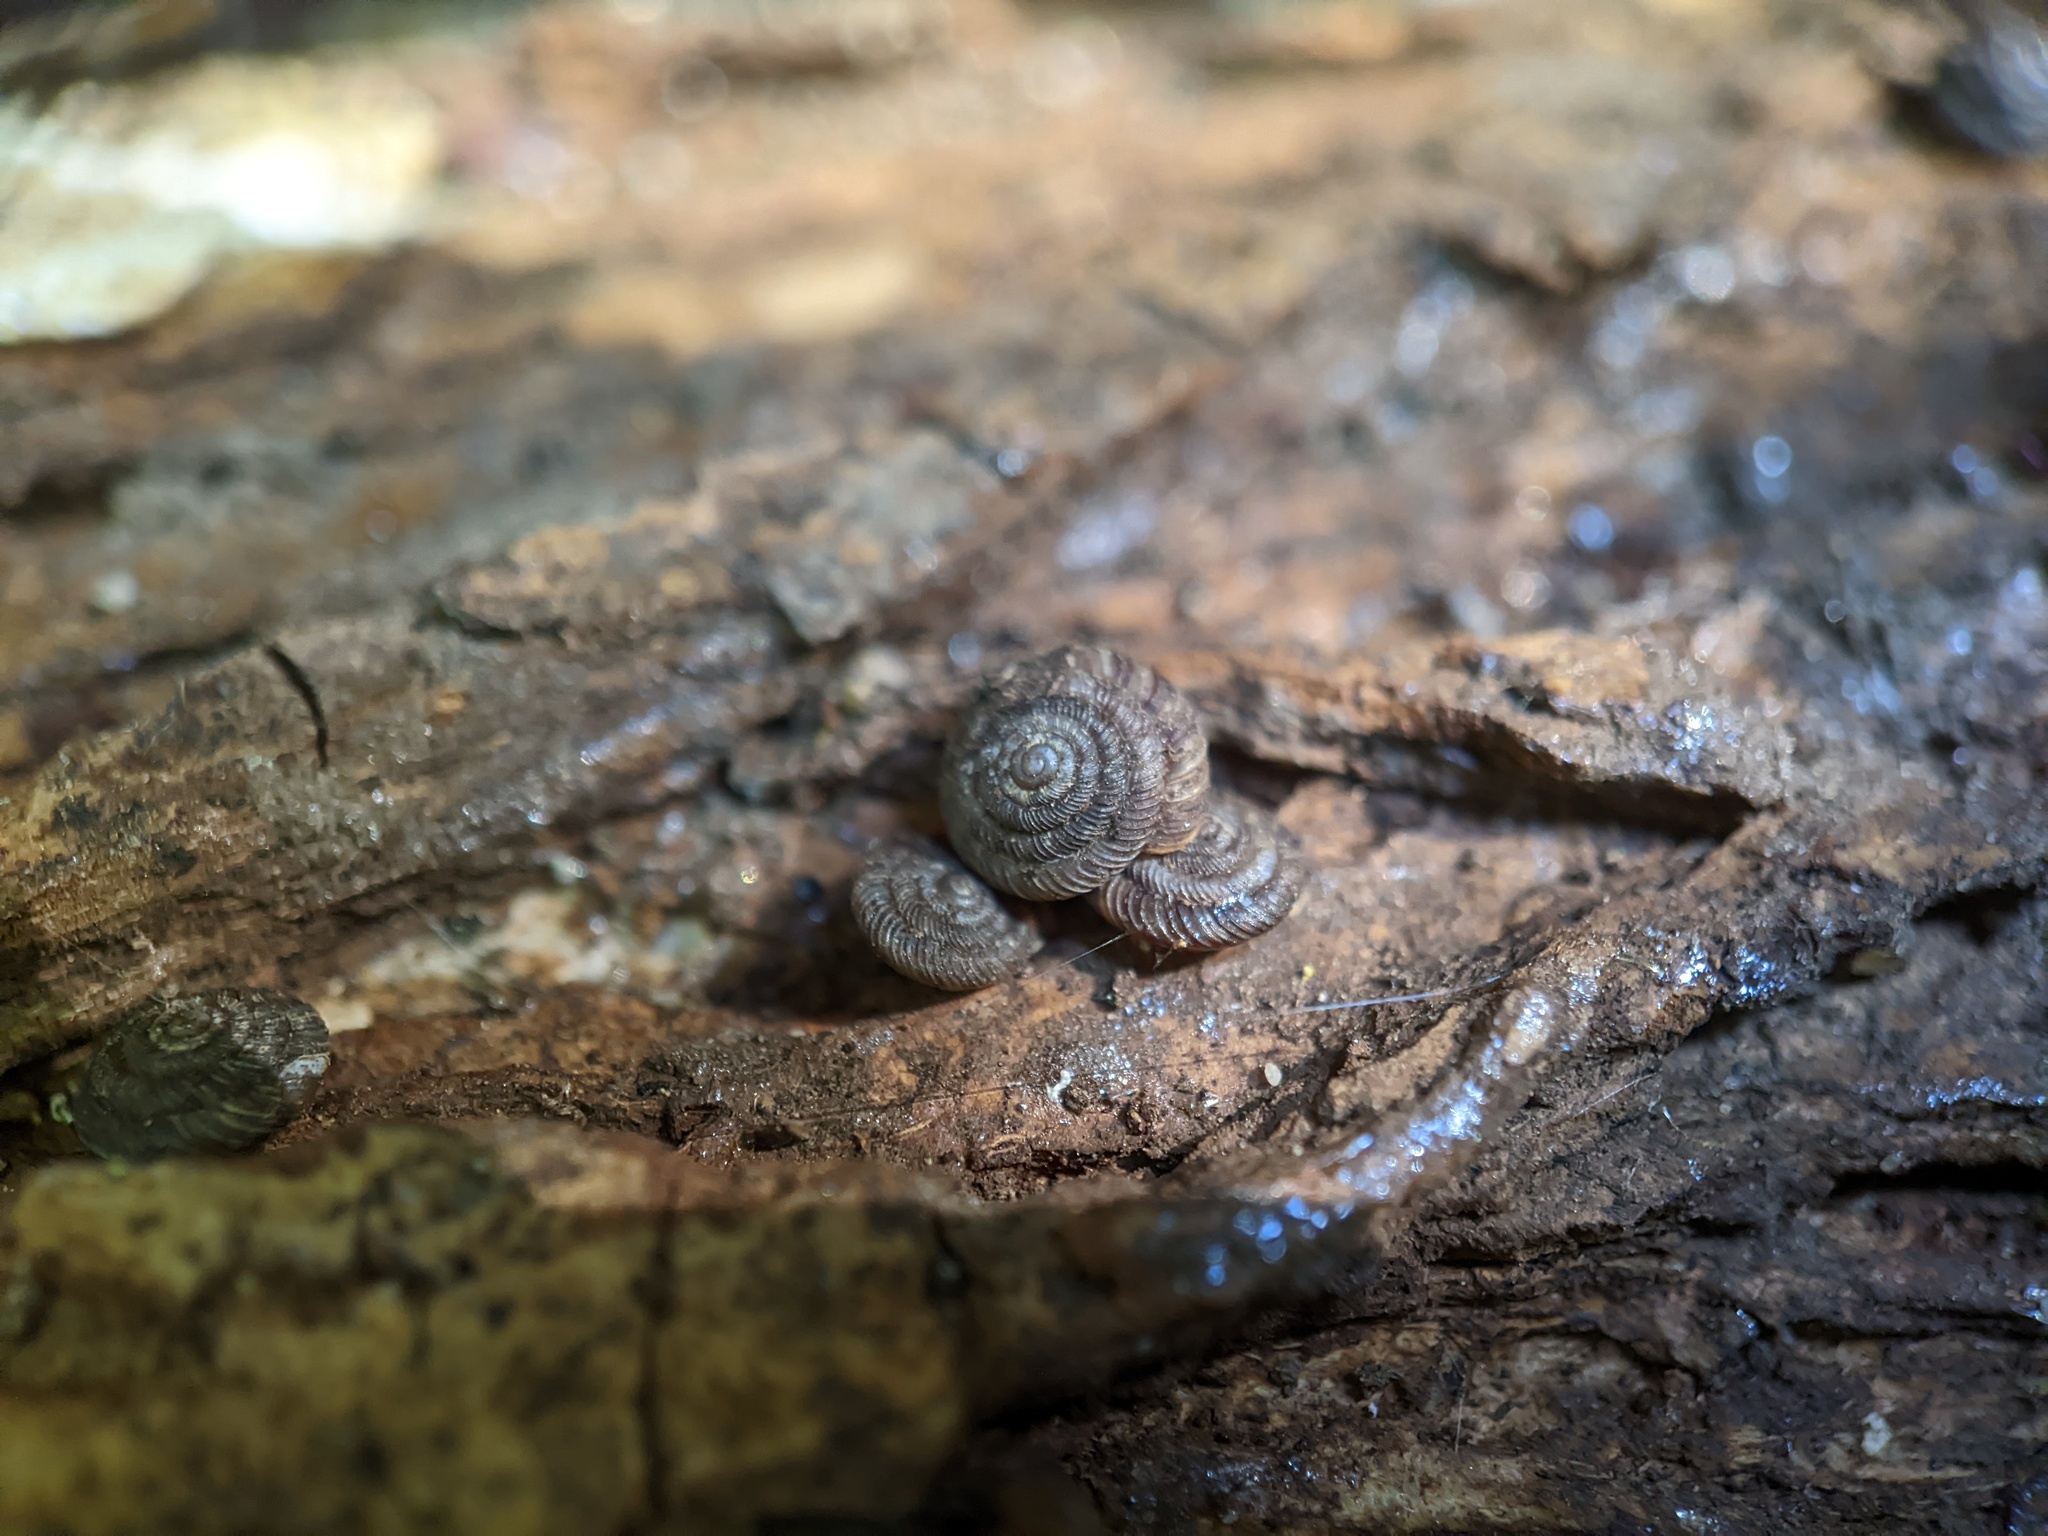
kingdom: Animalia
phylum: Mollusca
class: Gastropoda
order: Stylommatophora
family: Discidae
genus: Discus
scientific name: Discus rotundatus
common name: Rounded snail
